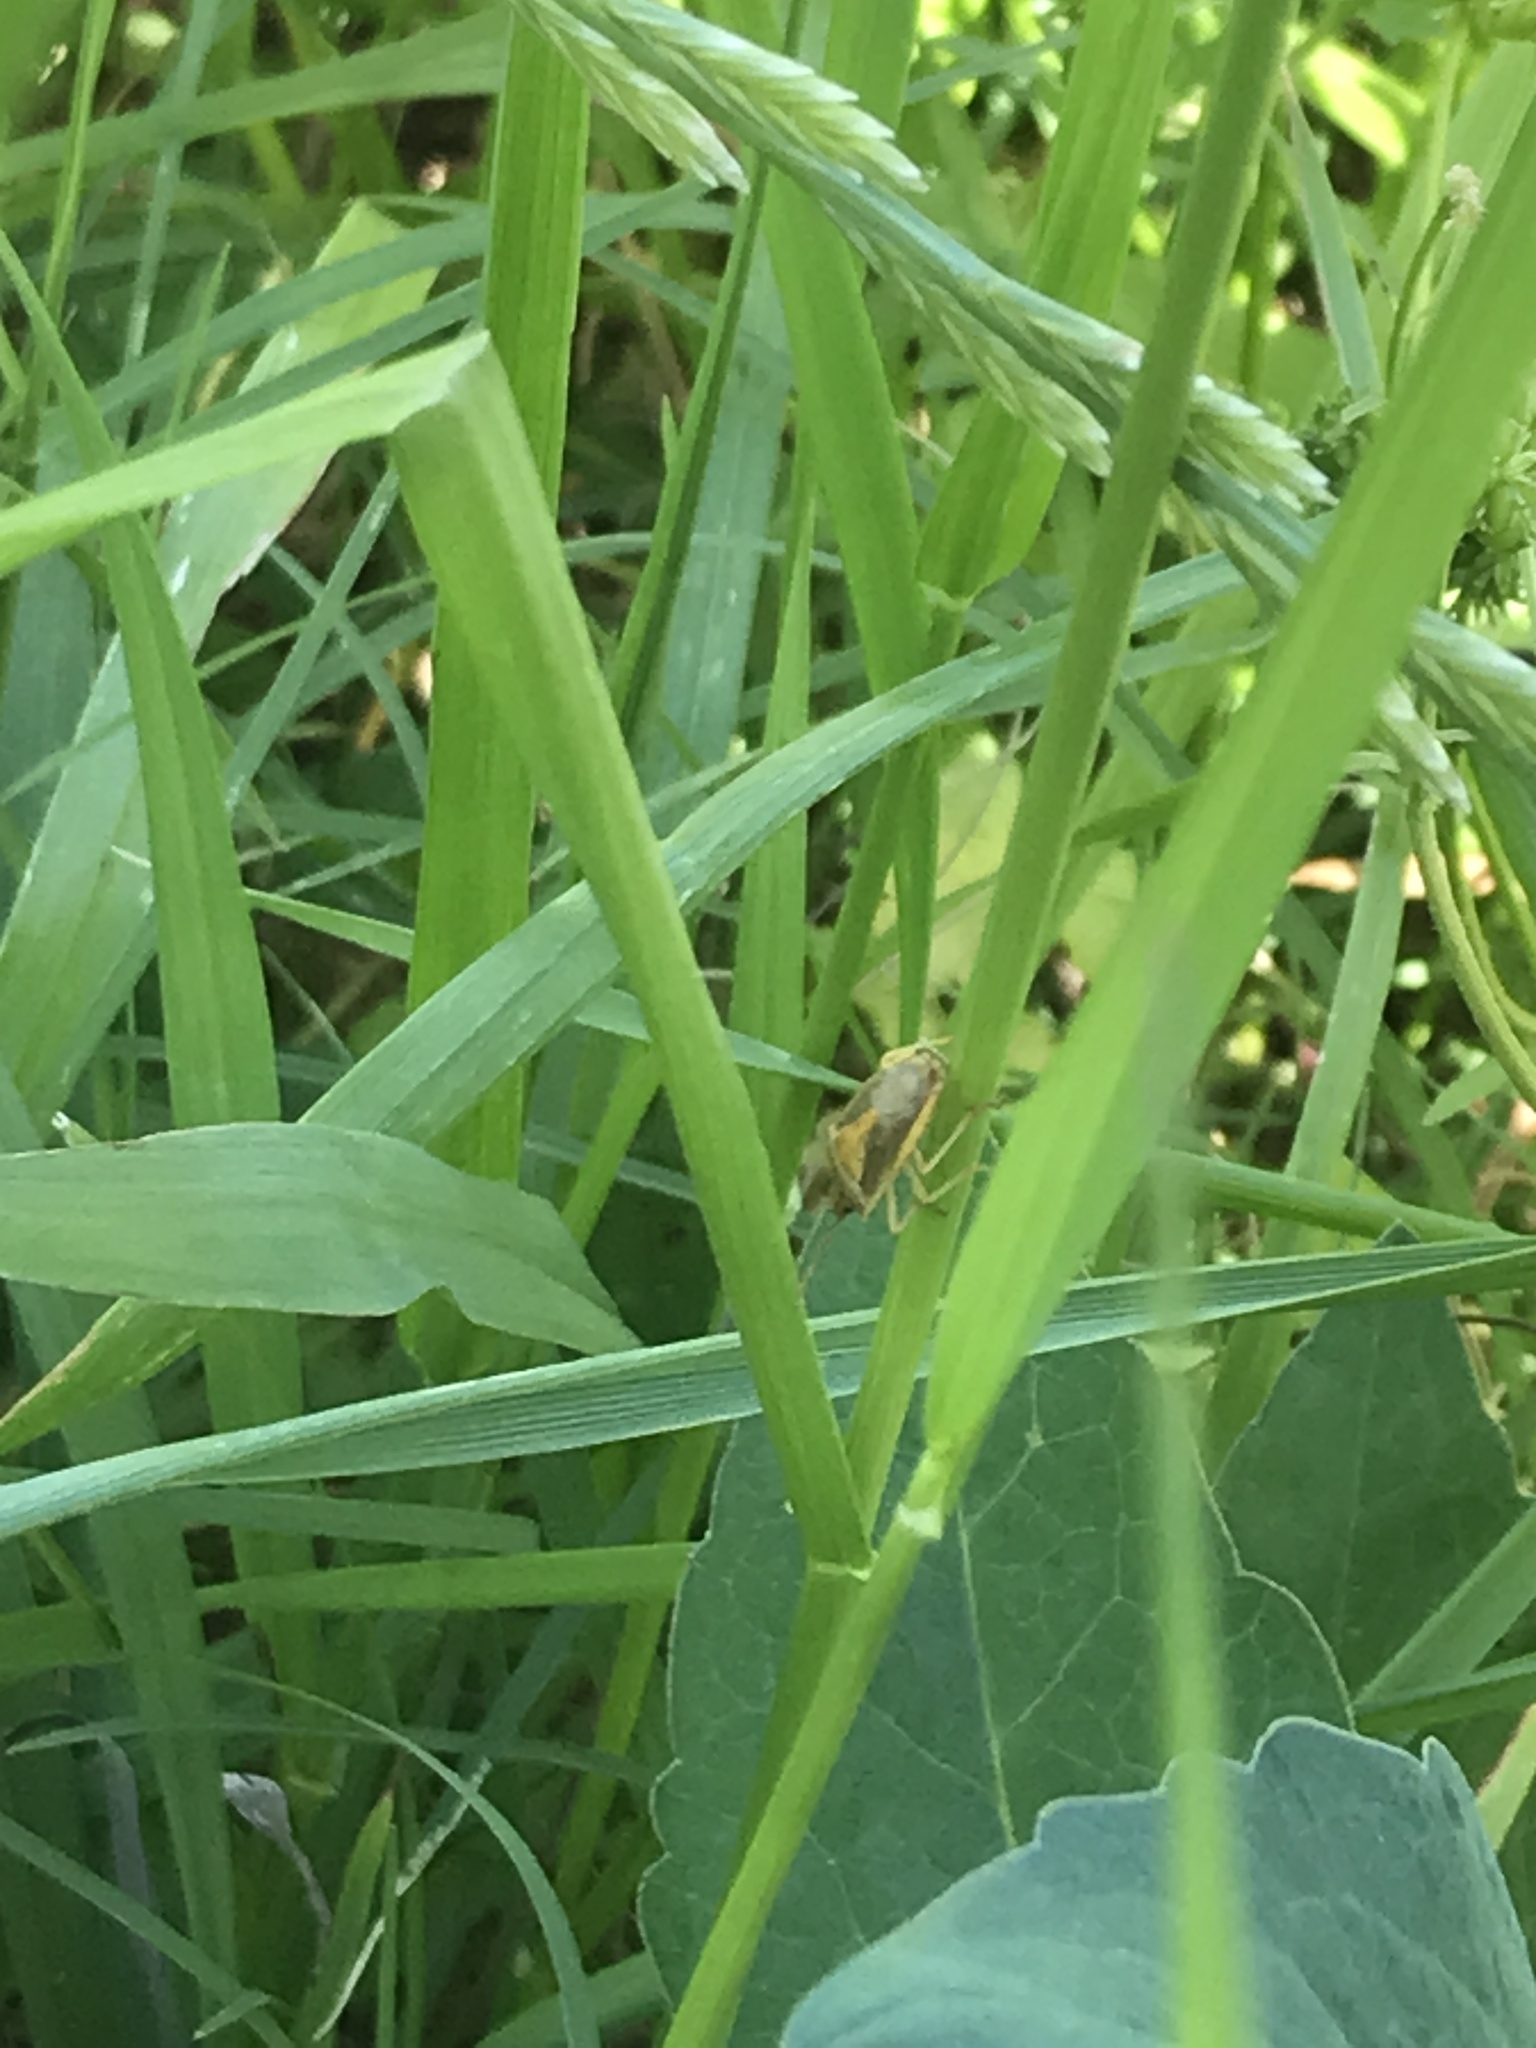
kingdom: Animalia
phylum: Arthropoda
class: Insecta
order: Hemiptera
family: Pentatomidae
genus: Oebalus
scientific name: Oebalus pugnax
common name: Rice stink bug
